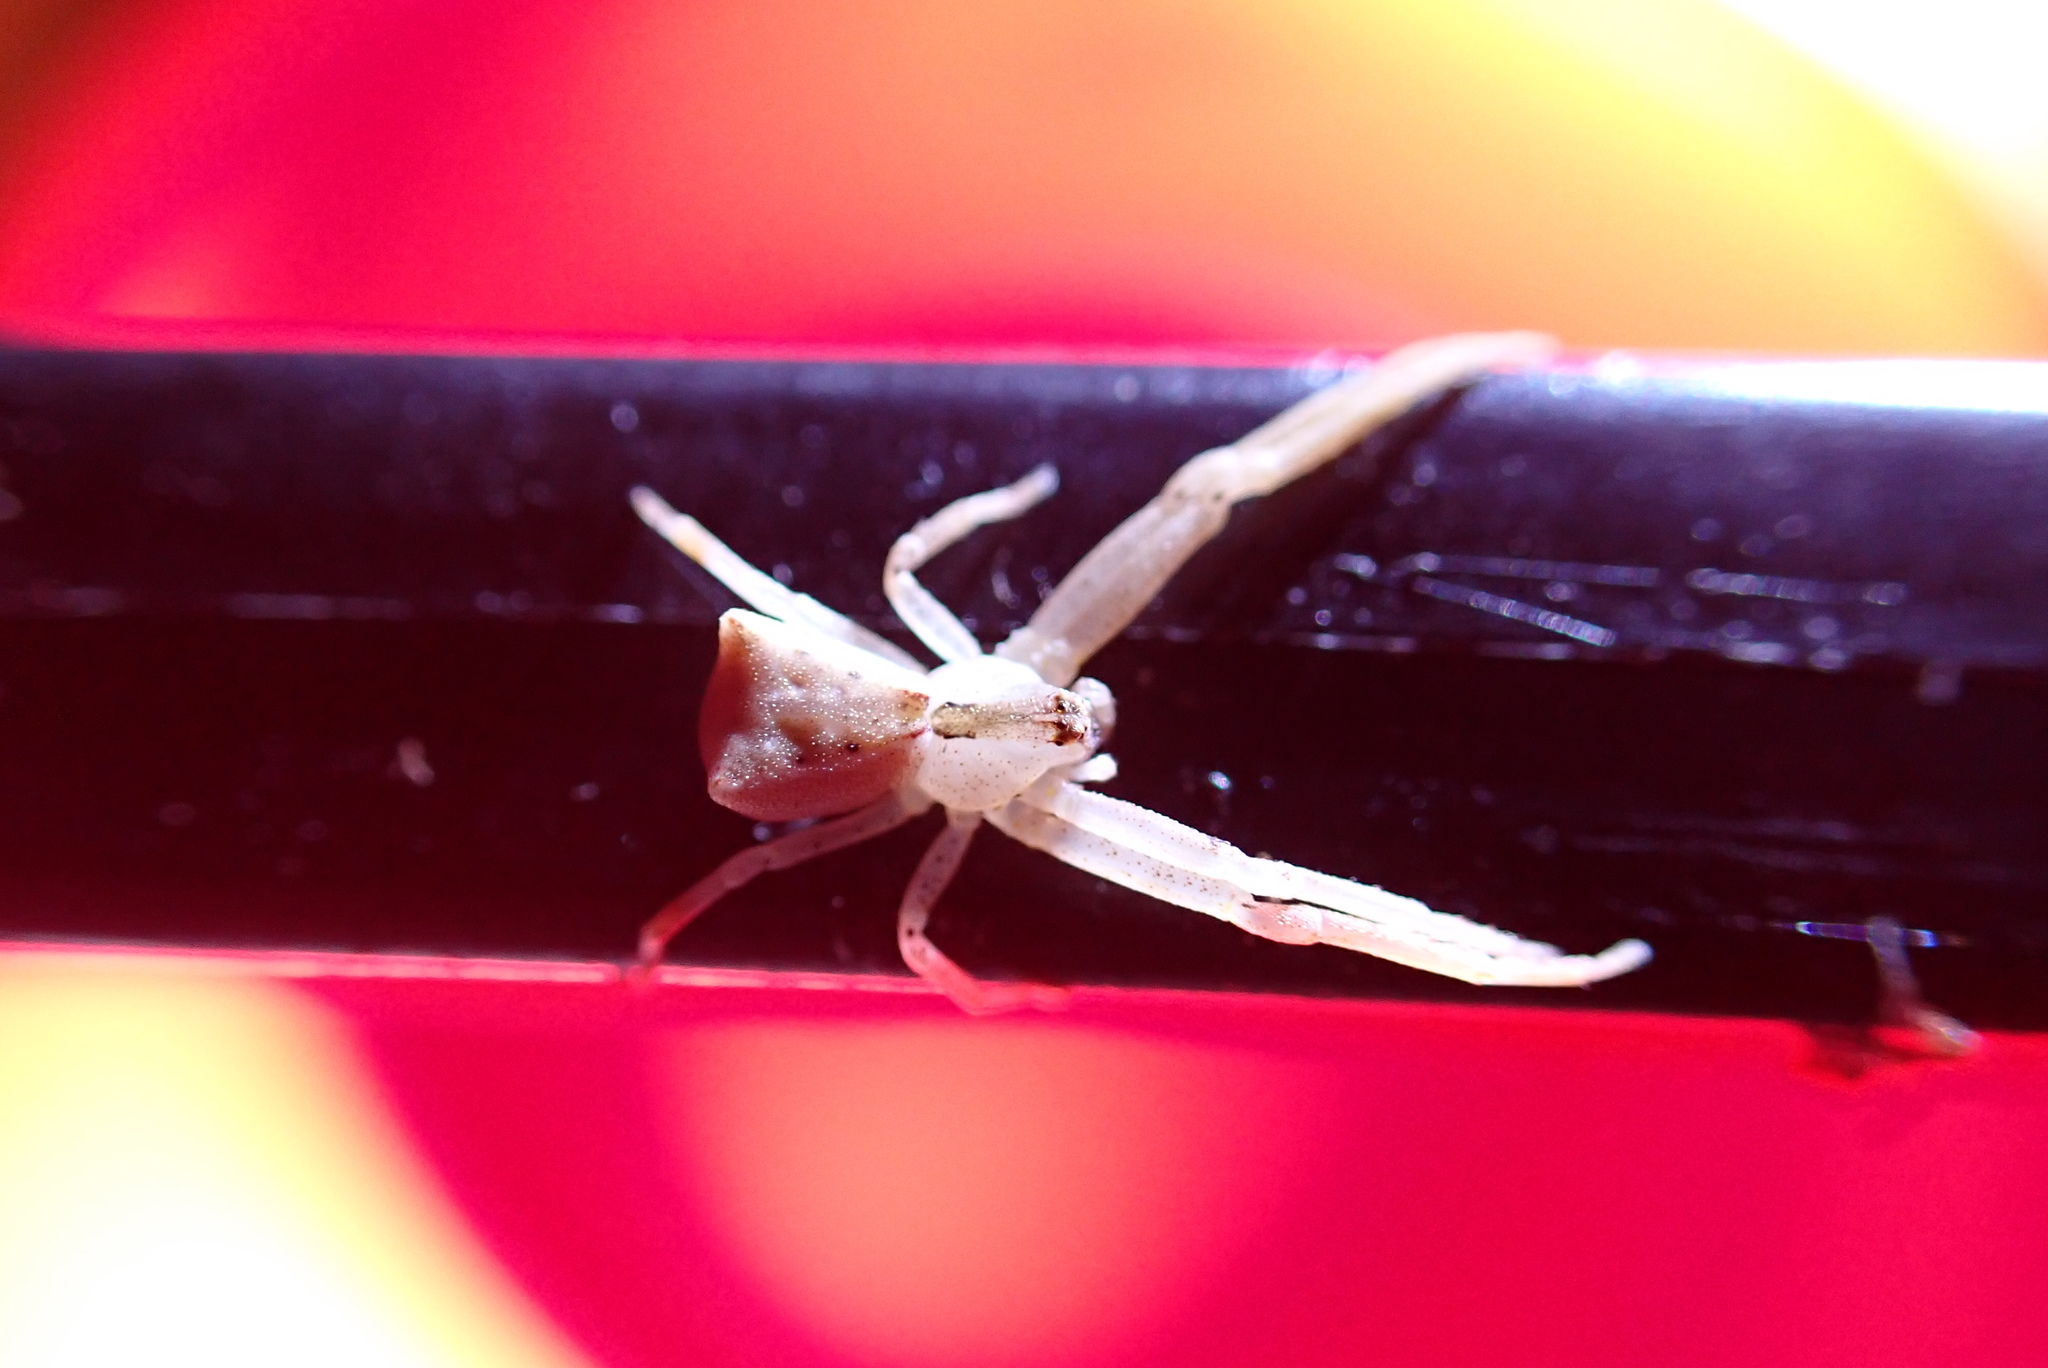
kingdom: Animalia
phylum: Arthropoda
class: Arachnida
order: Araneae
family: Thomisidae
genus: Sidymella
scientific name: Sidymella trapezia
